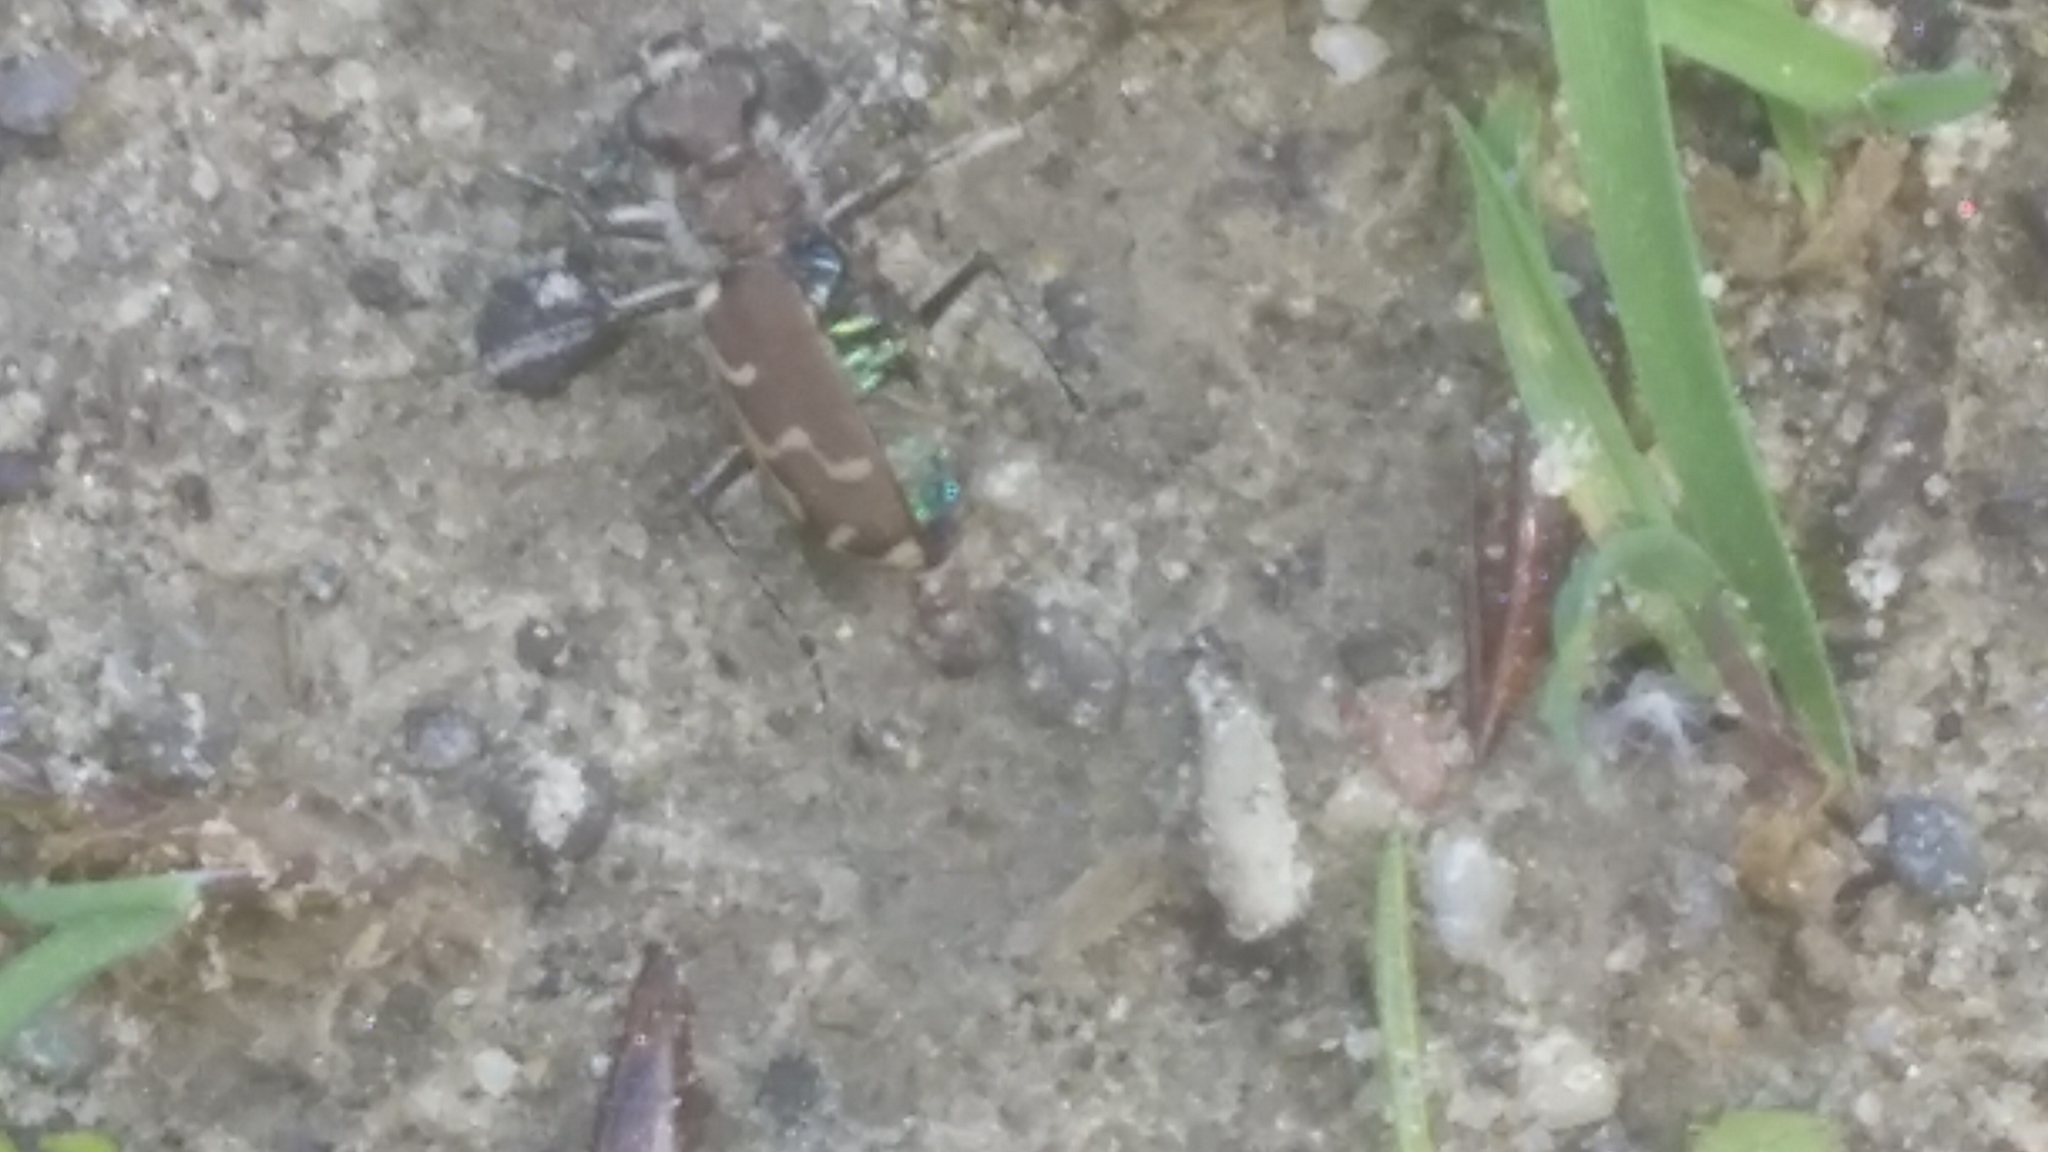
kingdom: Animalia
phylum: Arthropoda
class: Insecta
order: Coleoptera
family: Carabidae
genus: Cicindela
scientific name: Cicindela repanda
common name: Bronzed tiger beetle
